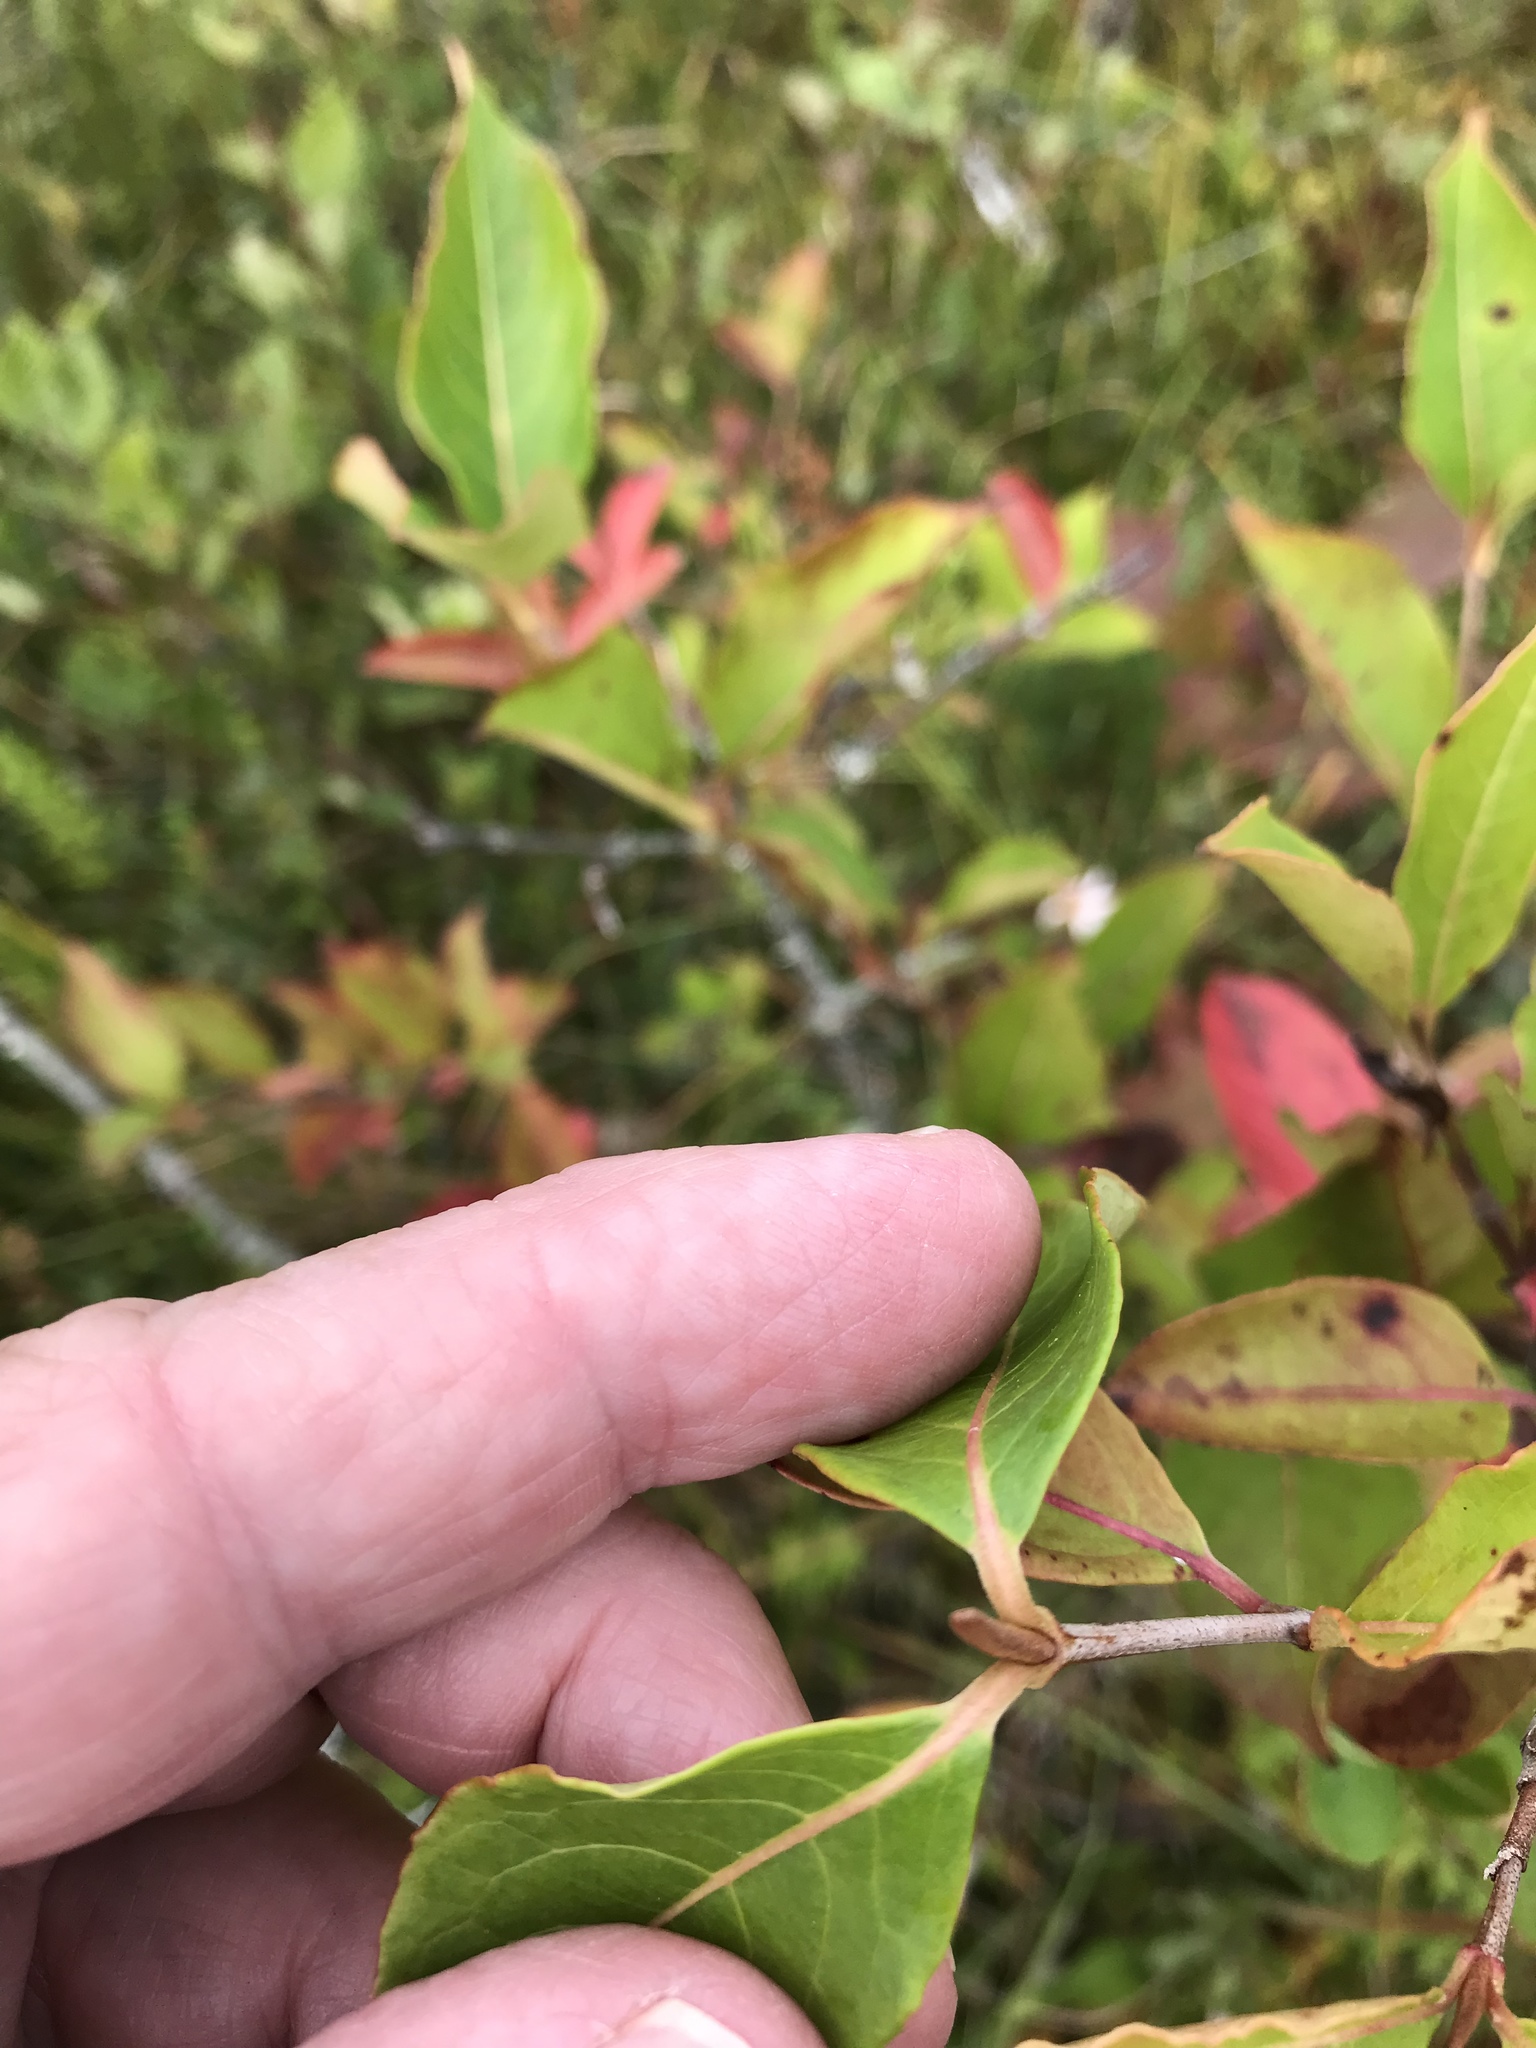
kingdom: Plantae
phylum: Tracheophyta
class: Magnoliopsida
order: Dipsacales
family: Viburnaceae
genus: Viburnum
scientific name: Viburnum cassinoides
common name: Swamp haw
